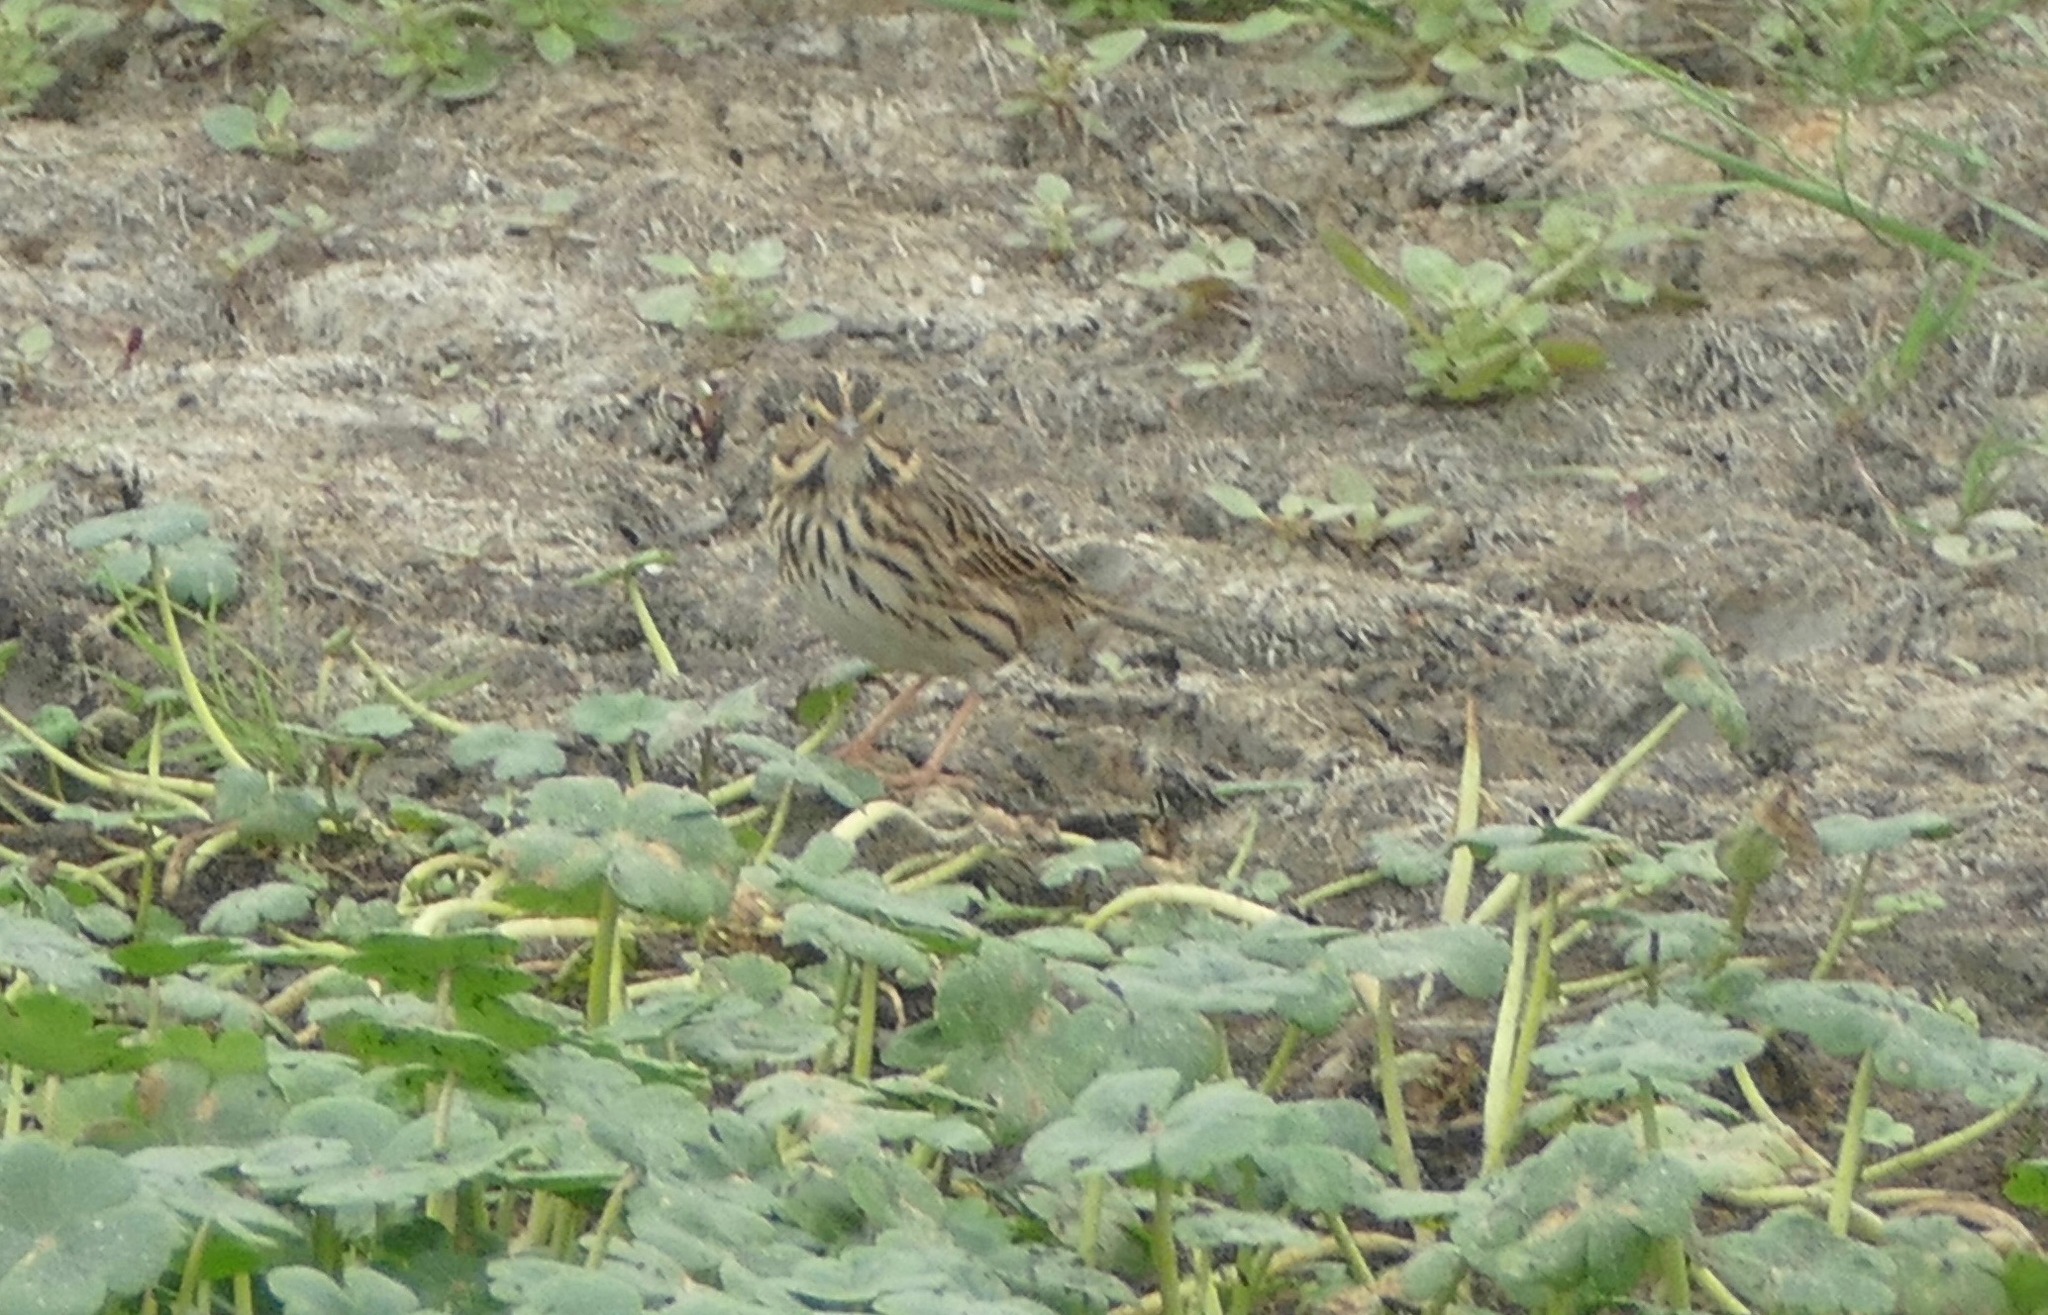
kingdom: Animalia
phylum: Chordata
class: Aves
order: Passeriformes
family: Passerellidae
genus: Passerculus
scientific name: Passerculus sandwichensis
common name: Savannah sparrow
